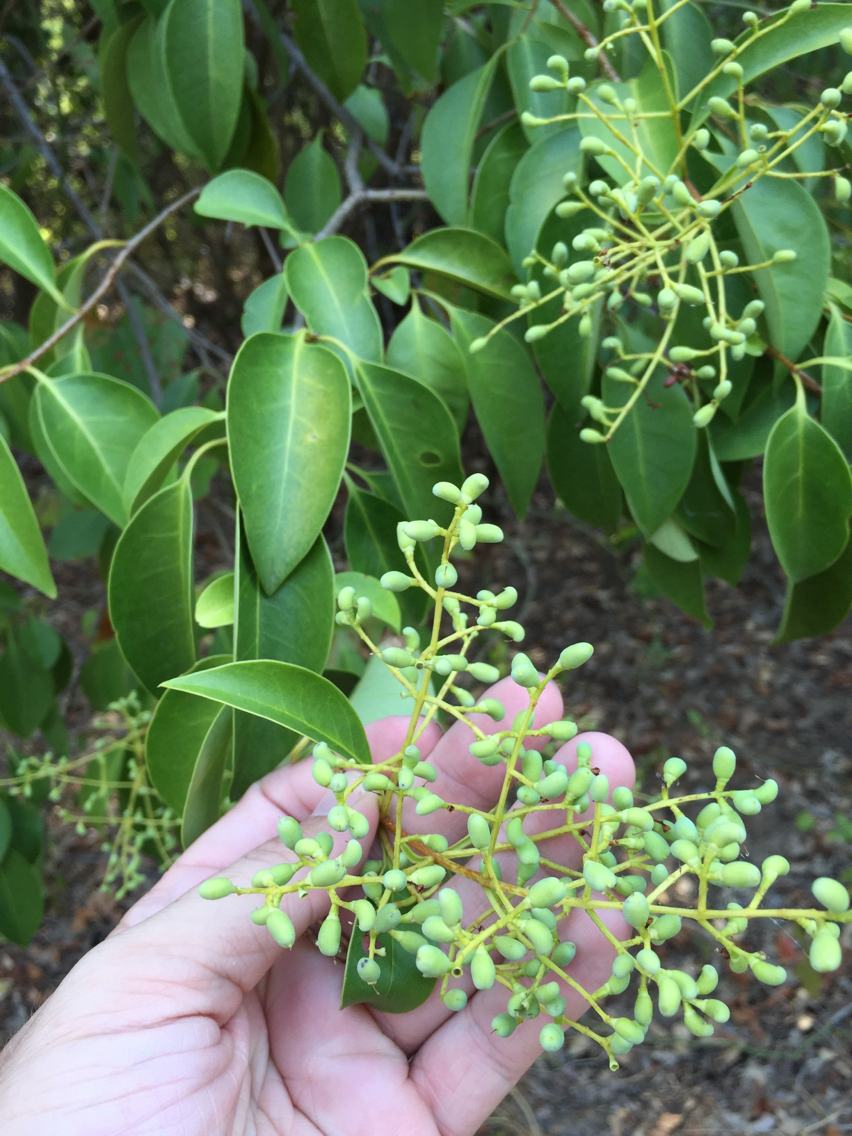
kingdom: Plantae
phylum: Tracheophyta
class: Magnoliopsida
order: Lamiales
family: Oleaceae
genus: Ligustrum
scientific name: Ligustrum lucidum
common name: Glossy privet
